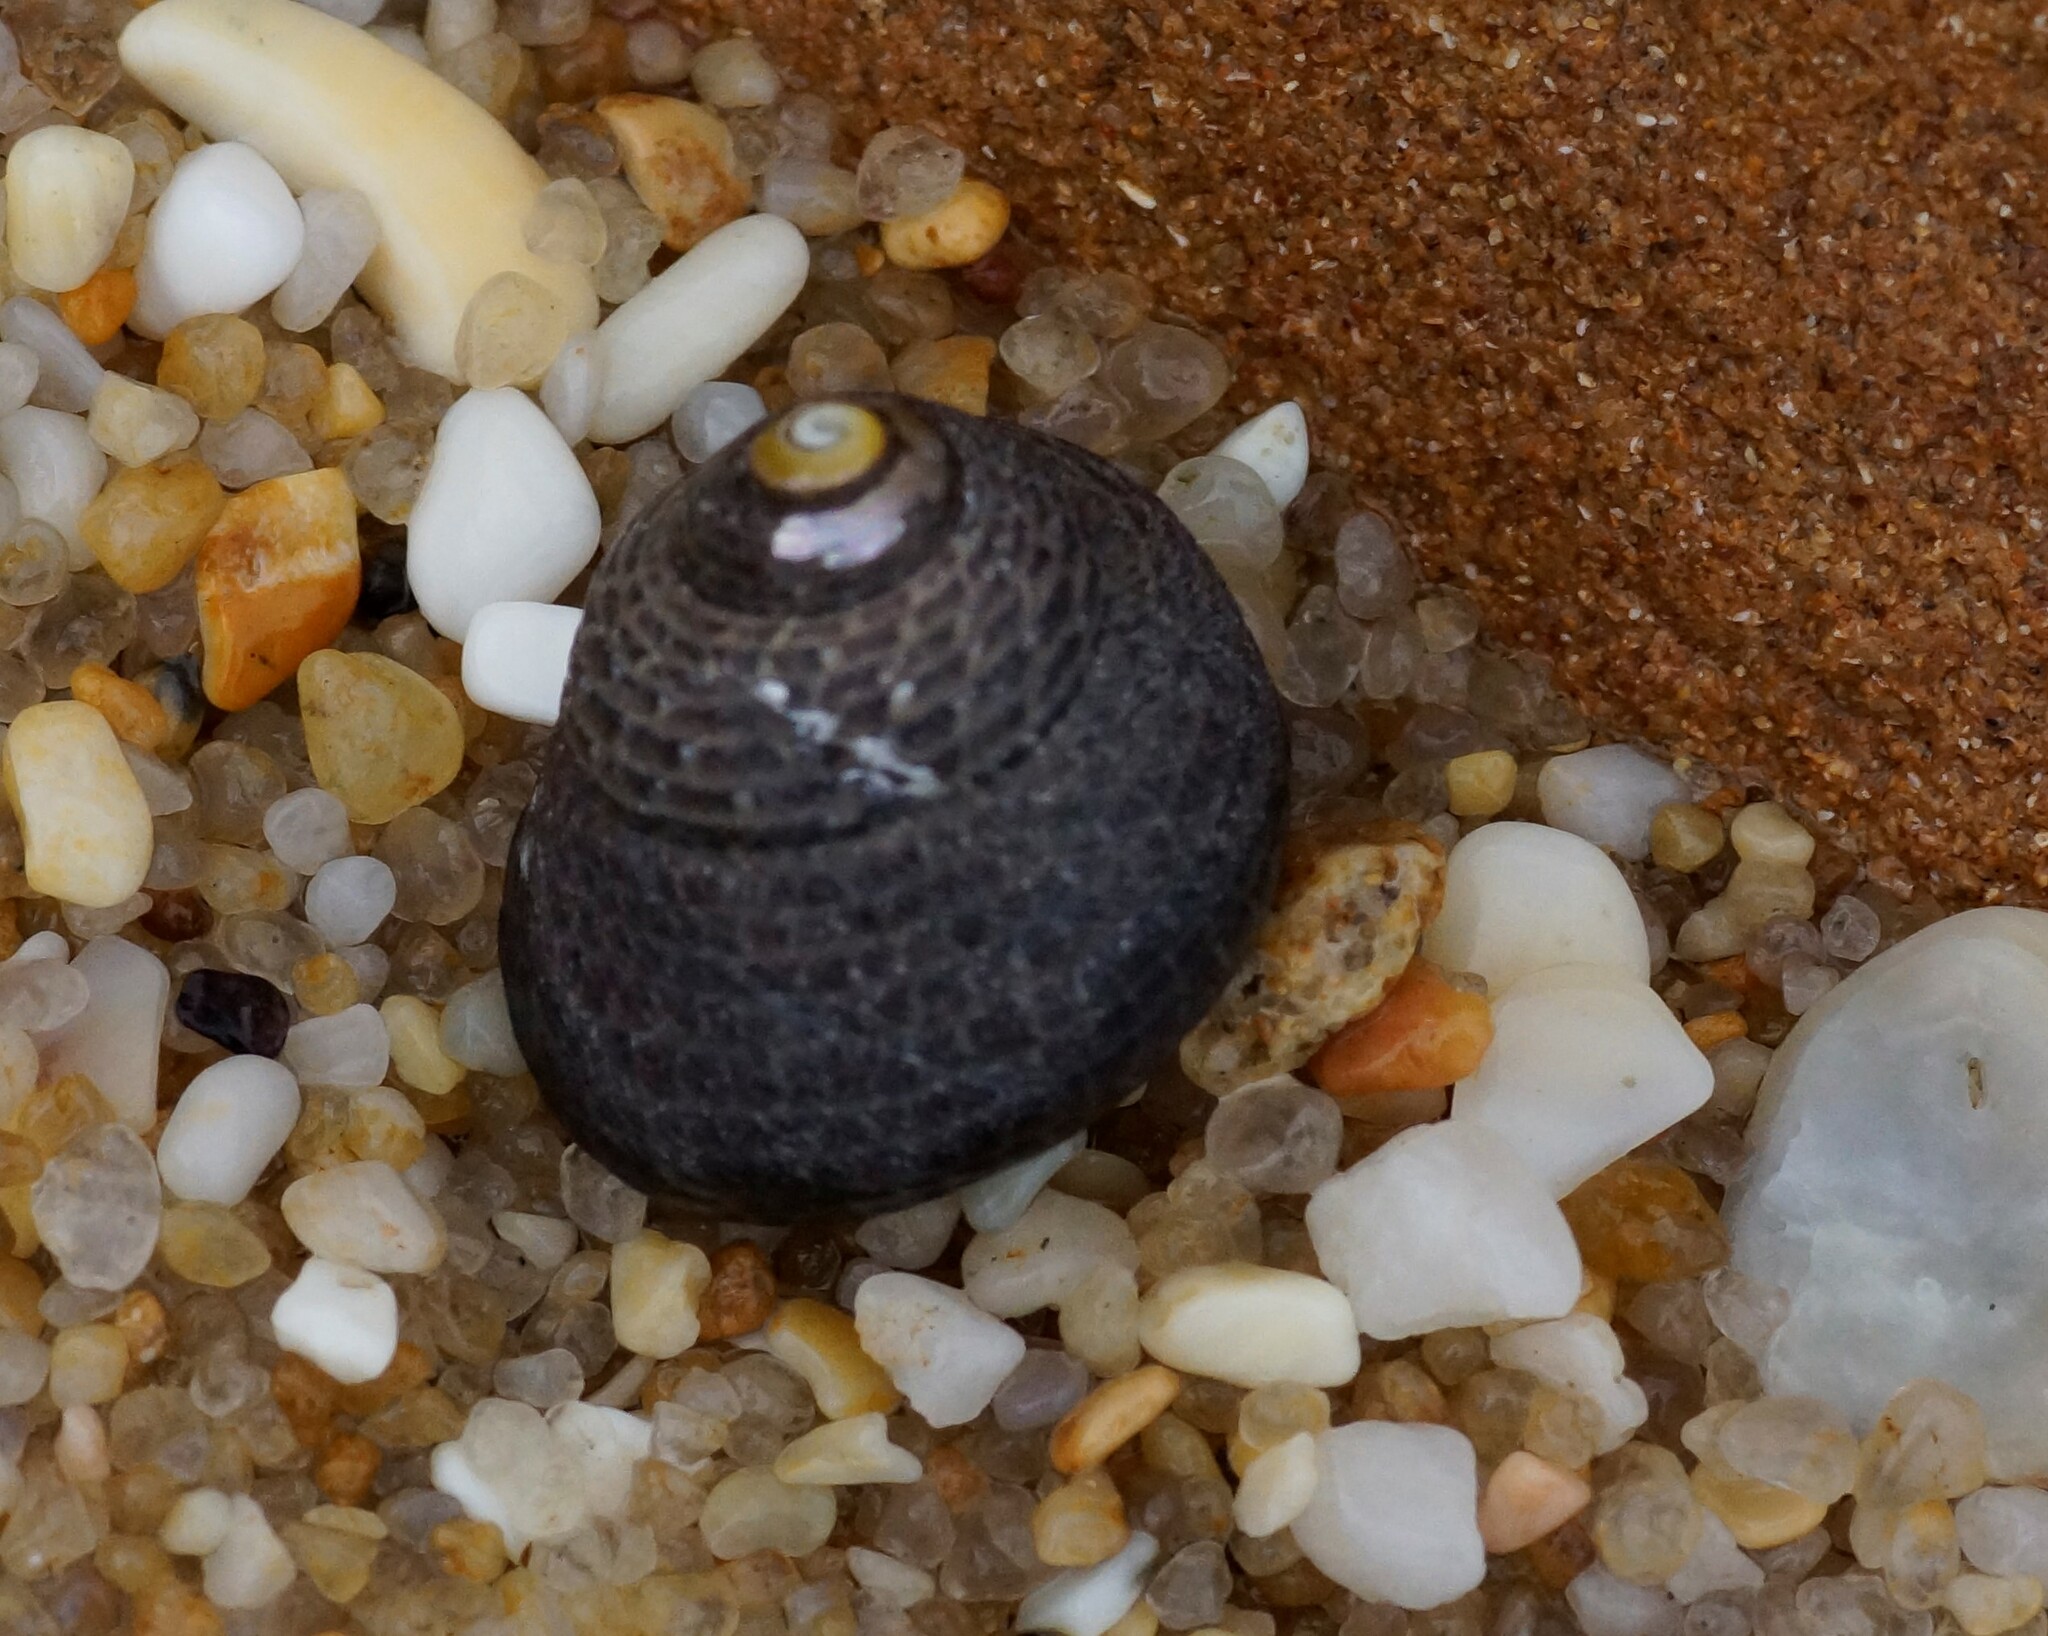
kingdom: Animalia
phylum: Mollusca
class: Gastropoda
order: Trochida
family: Trochidae
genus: Chlorodiloma
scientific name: Chlorodiloma adelaidae
